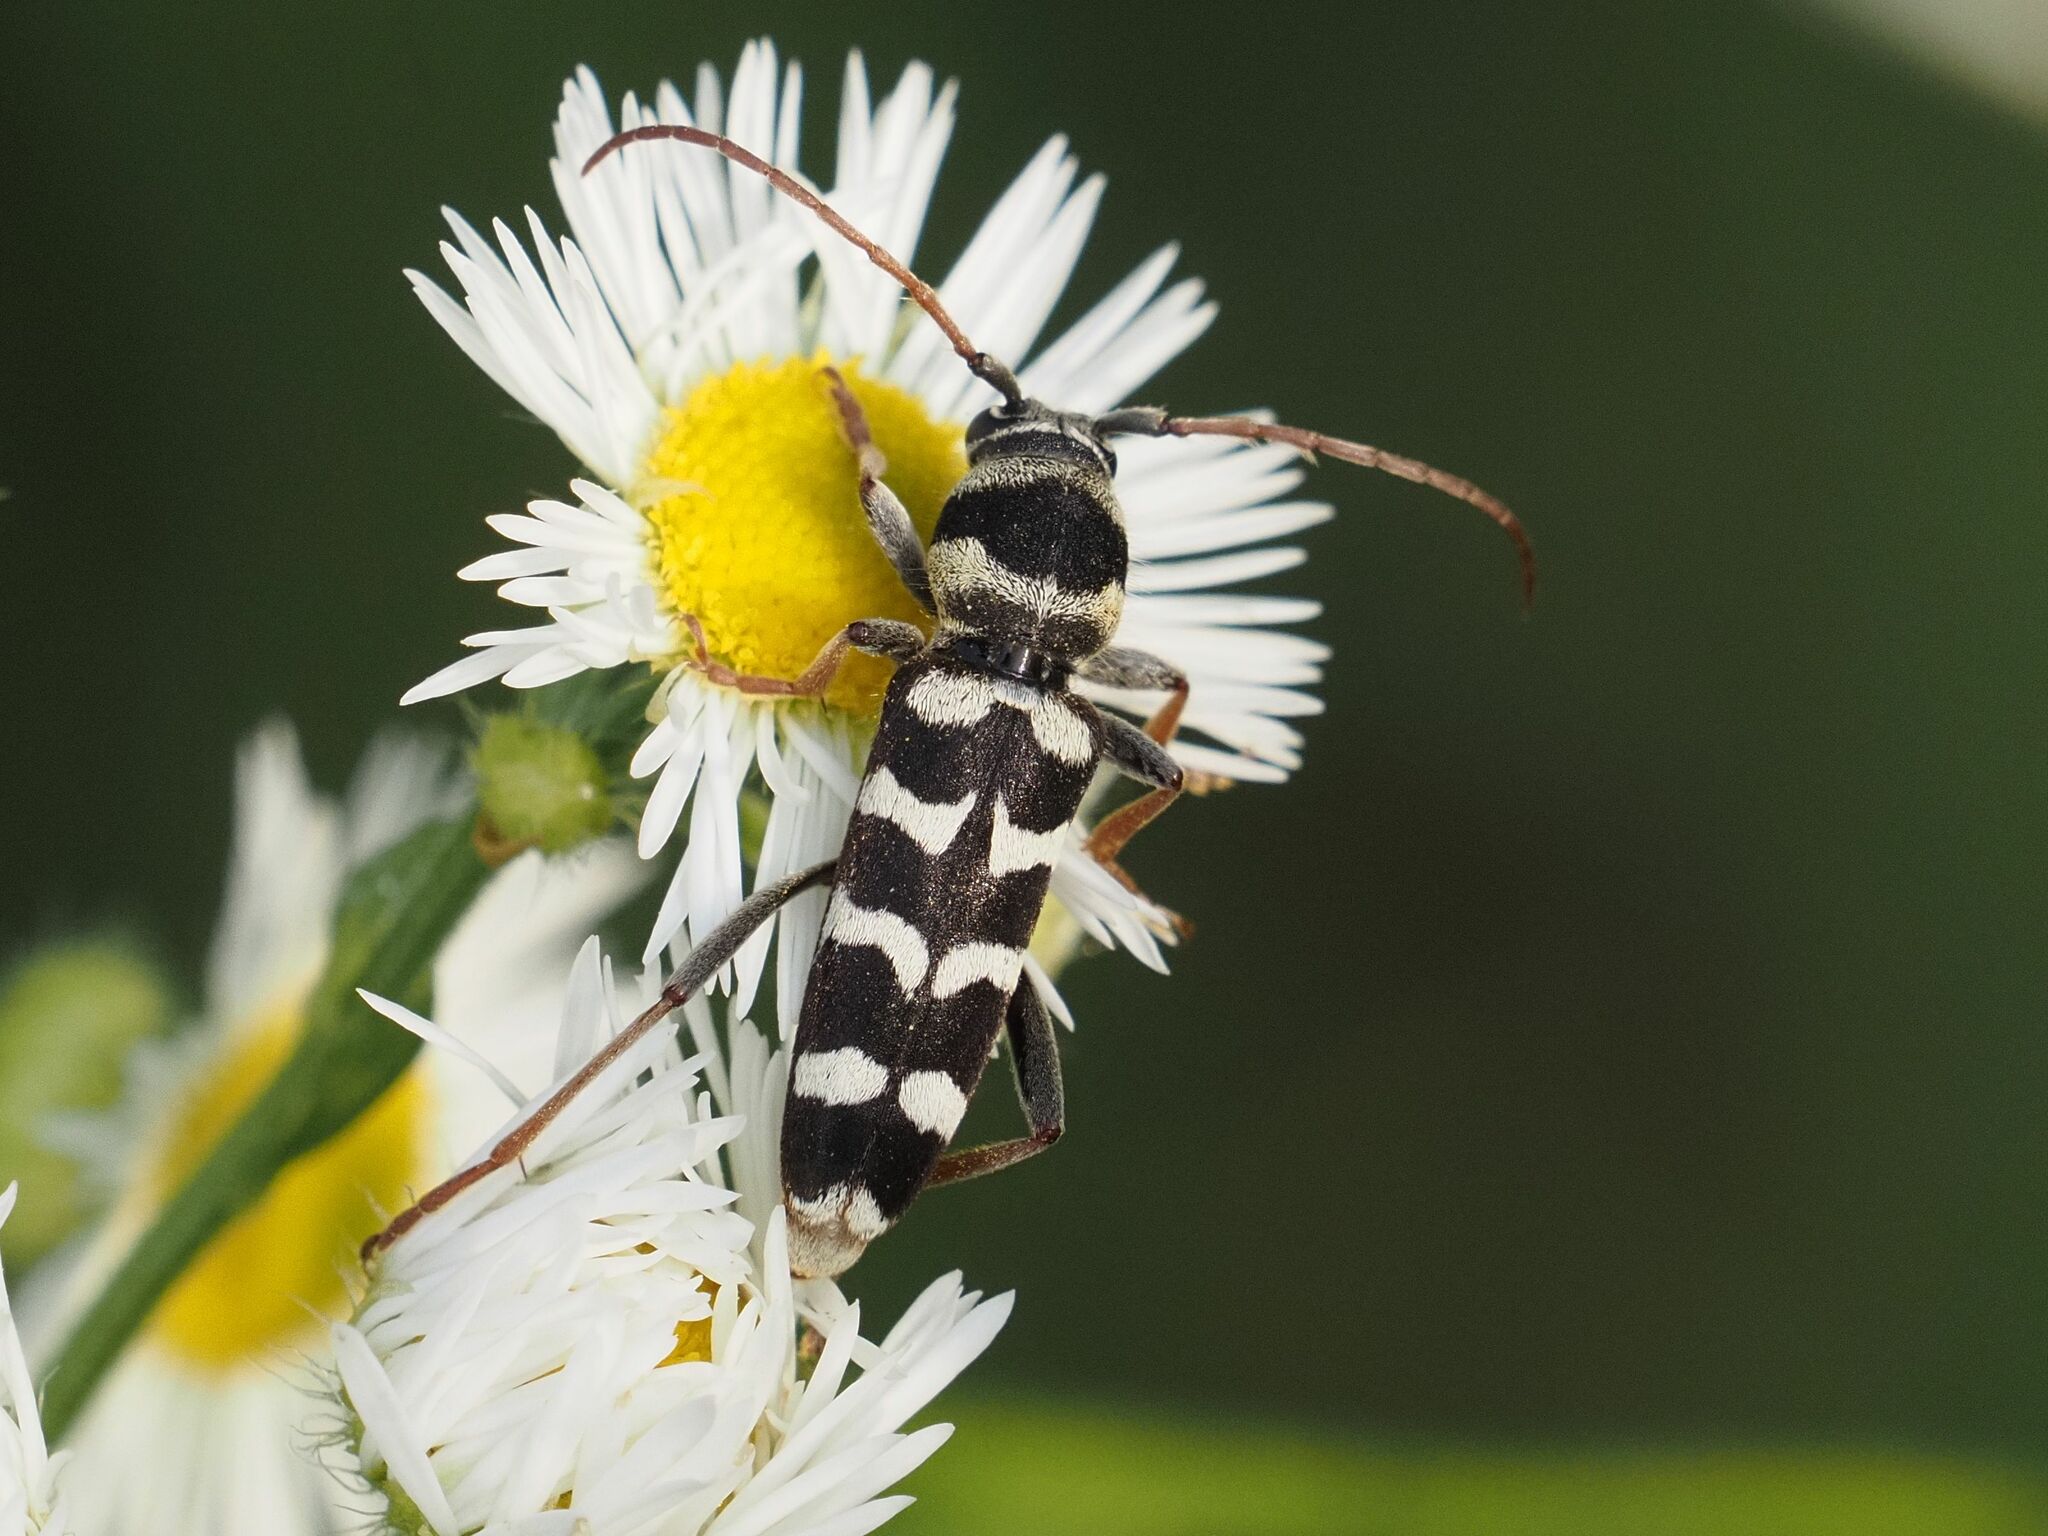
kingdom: Animalia
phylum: Arthropoda
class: Insecta
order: Coleoptera
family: Cerambycidae
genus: Plagionotus
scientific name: Plagionotus floralis
